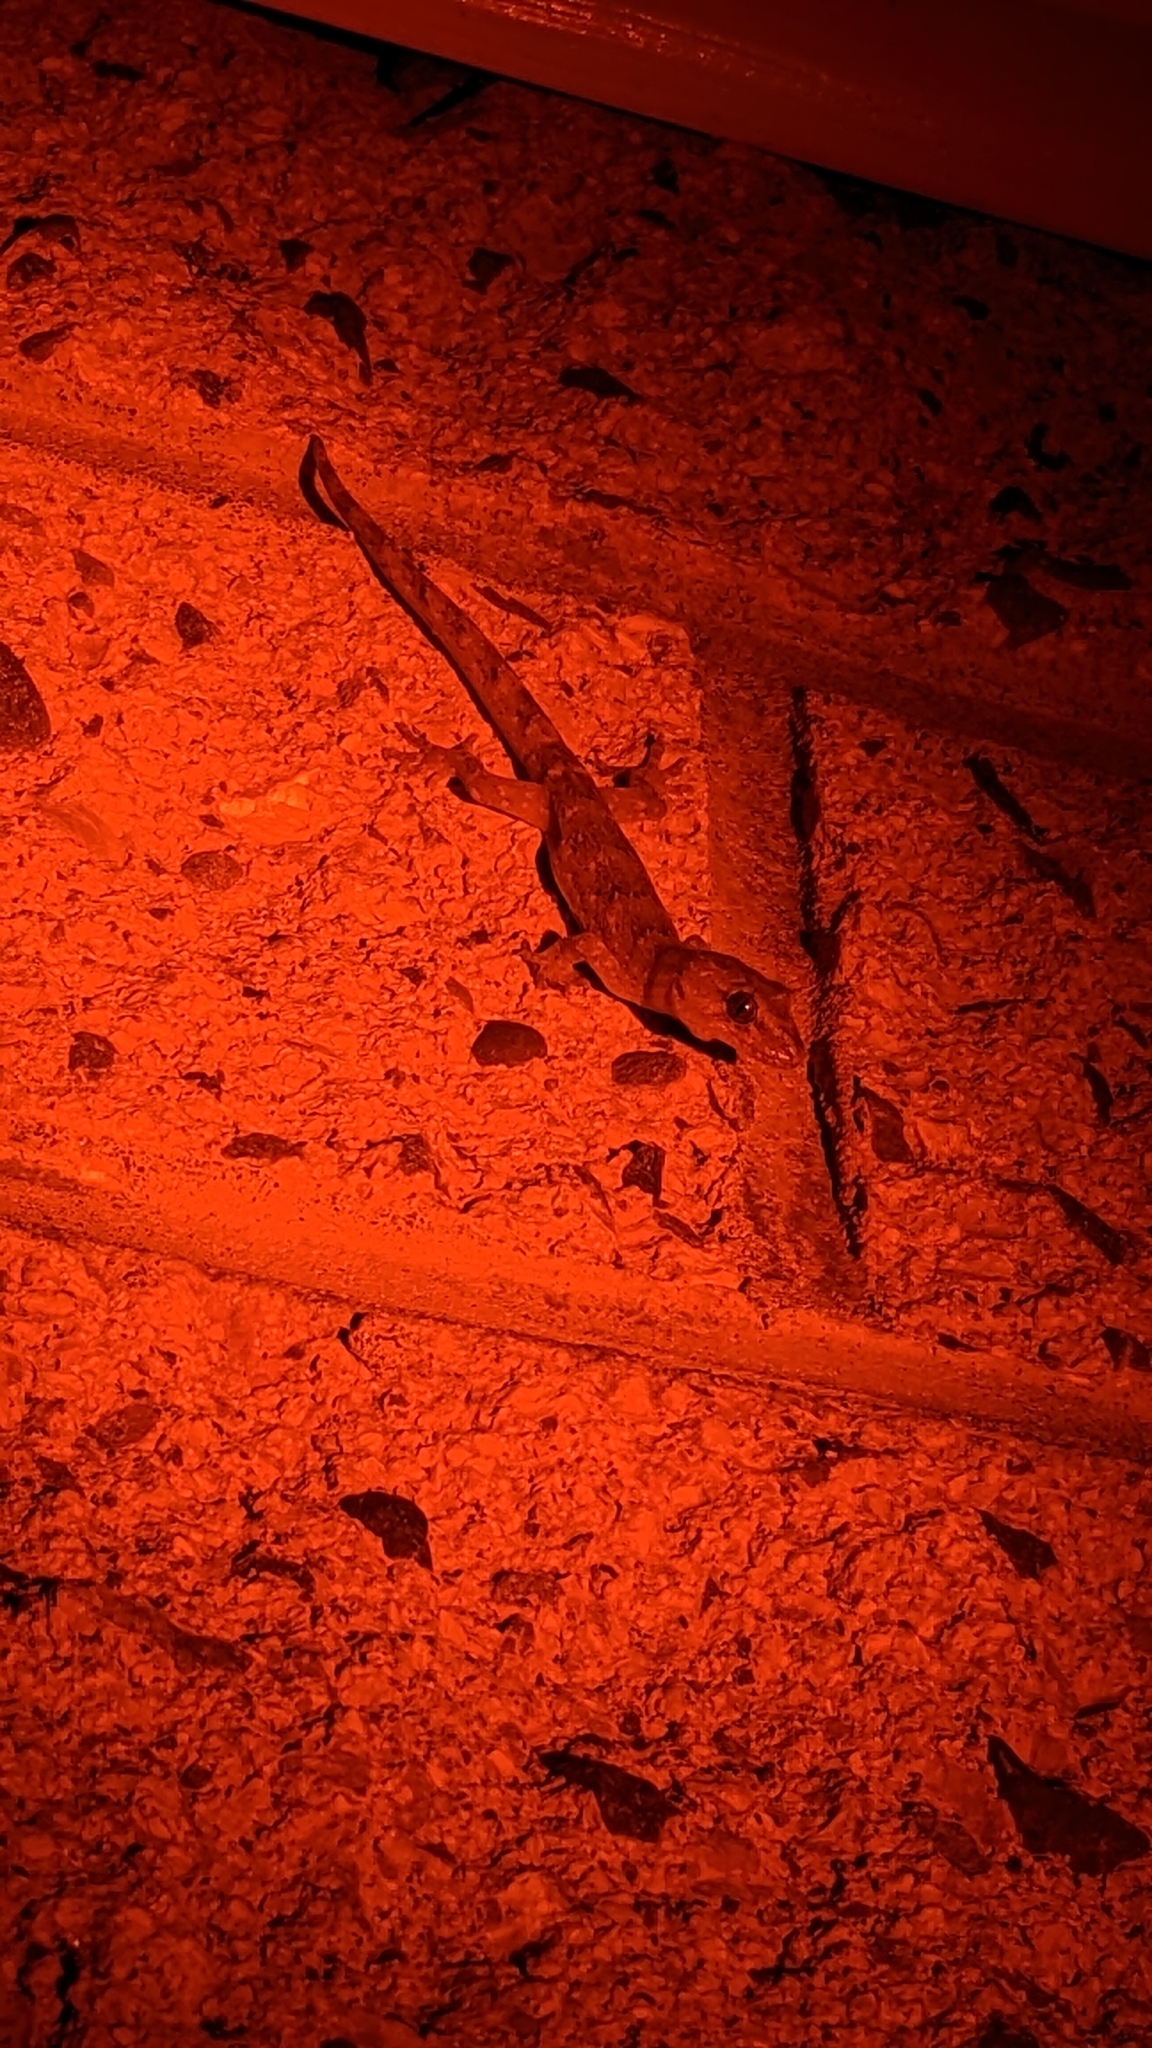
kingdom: Animalia
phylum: Chordata
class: Squamata
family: Diplodactylidae
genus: Woodworthia
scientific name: Woodworthia maculata
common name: Raukawa gecko
